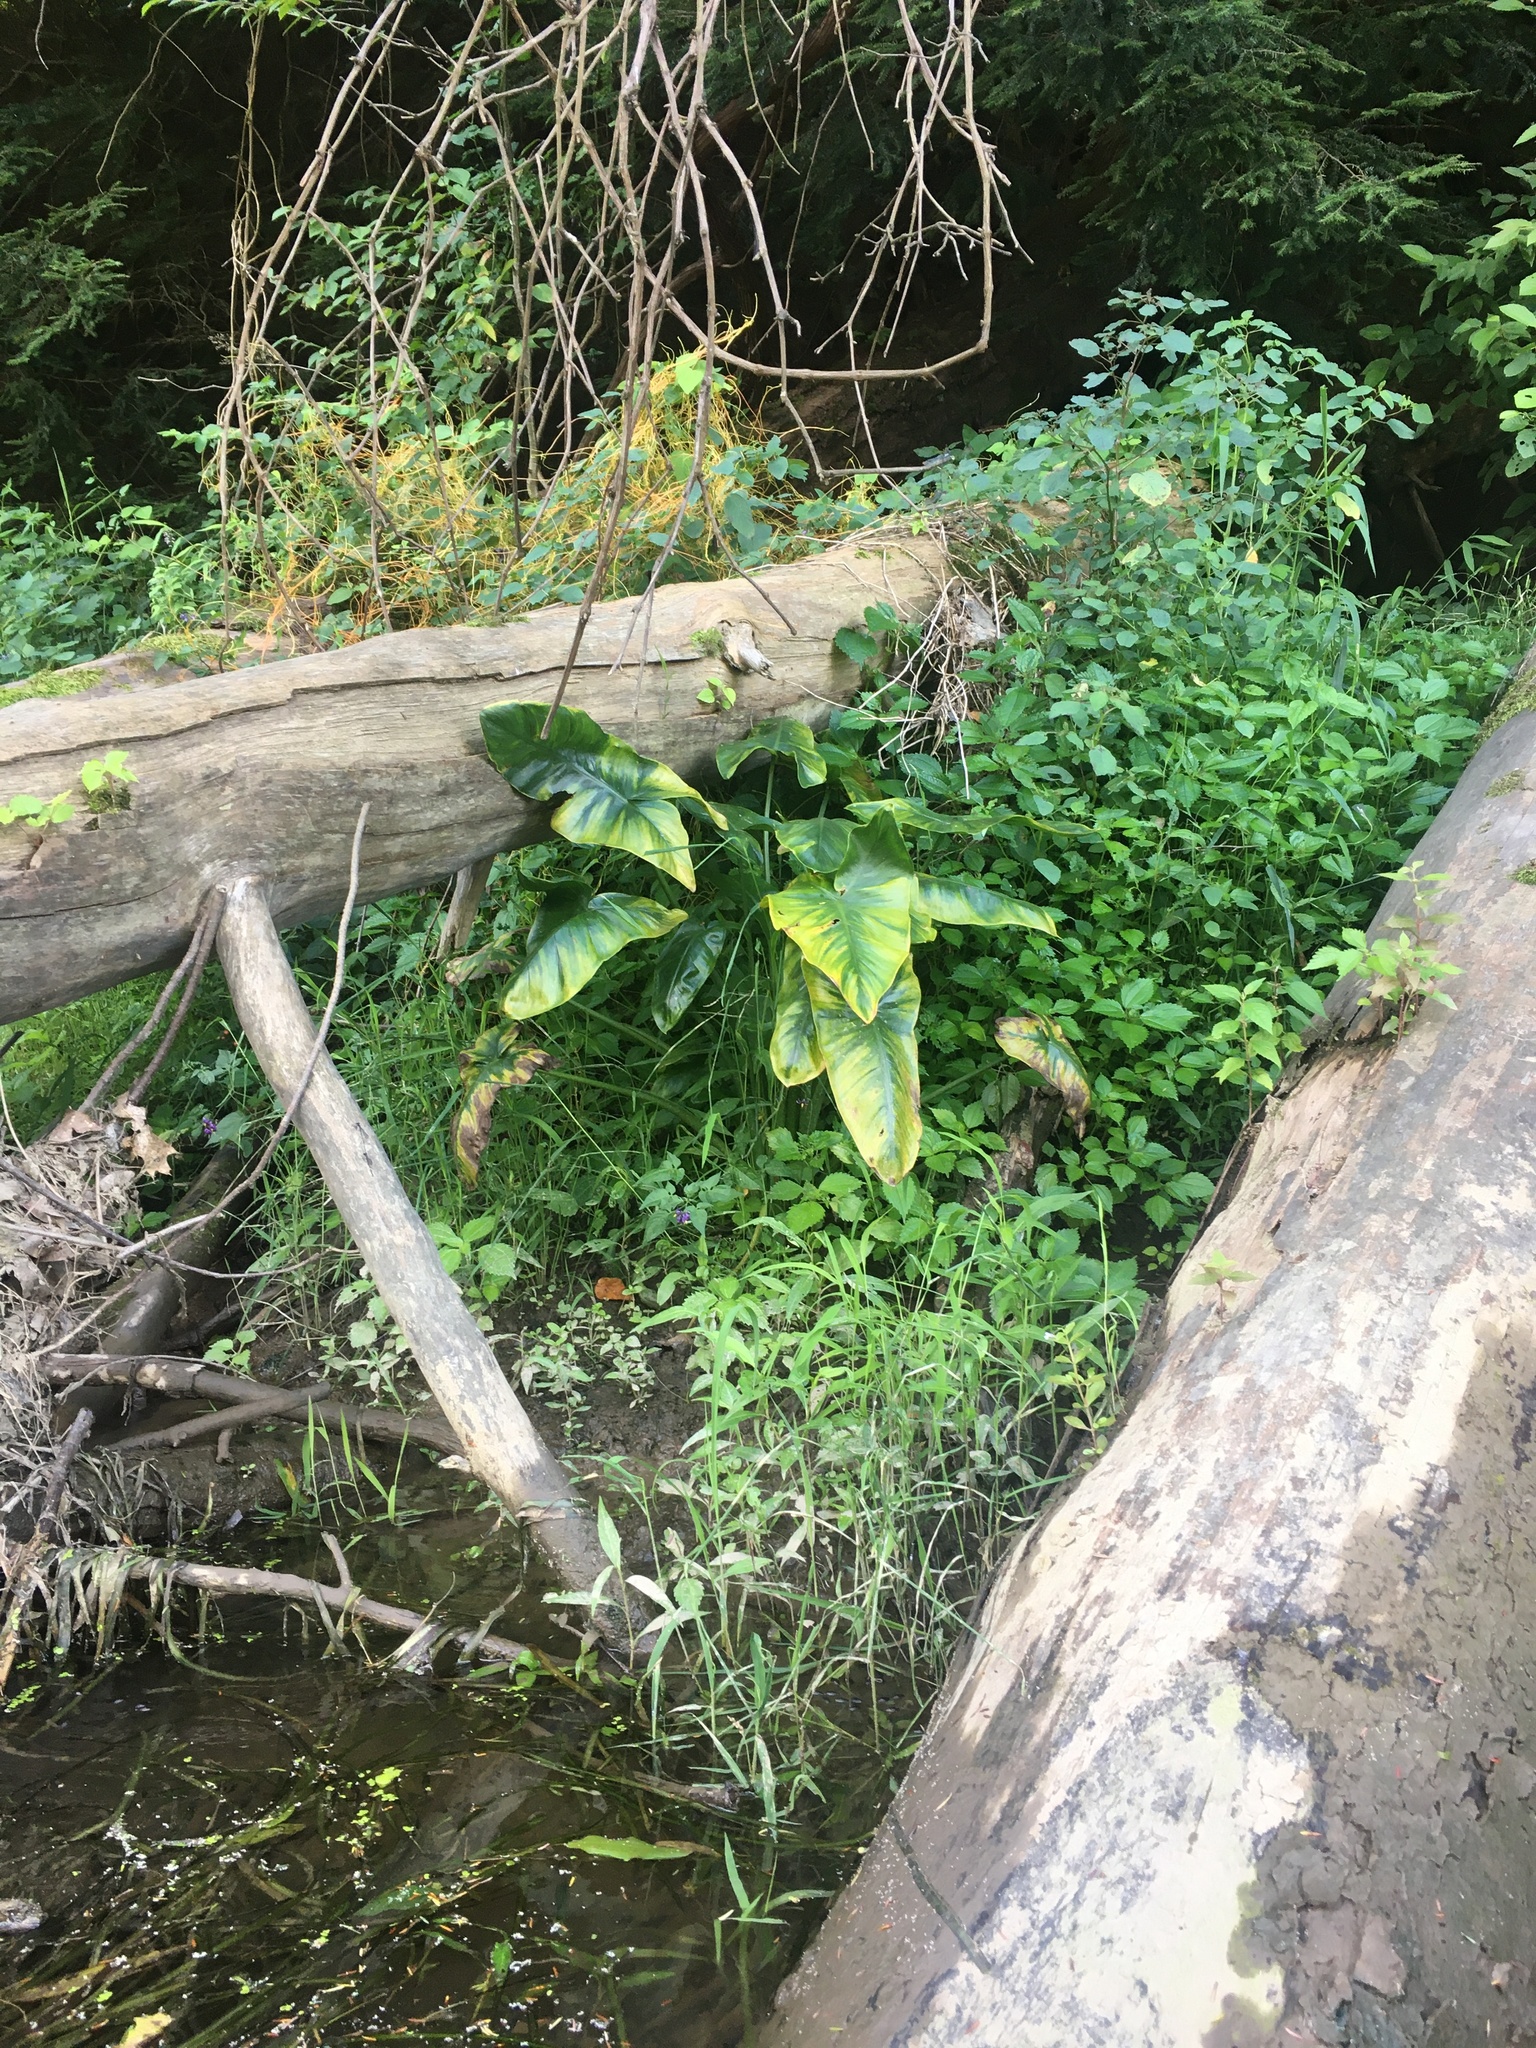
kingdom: Plantae
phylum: Tracheophyta
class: Liliopsida
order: Alismatales
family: Araceae
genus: Peltandra
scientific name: Peltandra virginica
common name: Arrow arum
